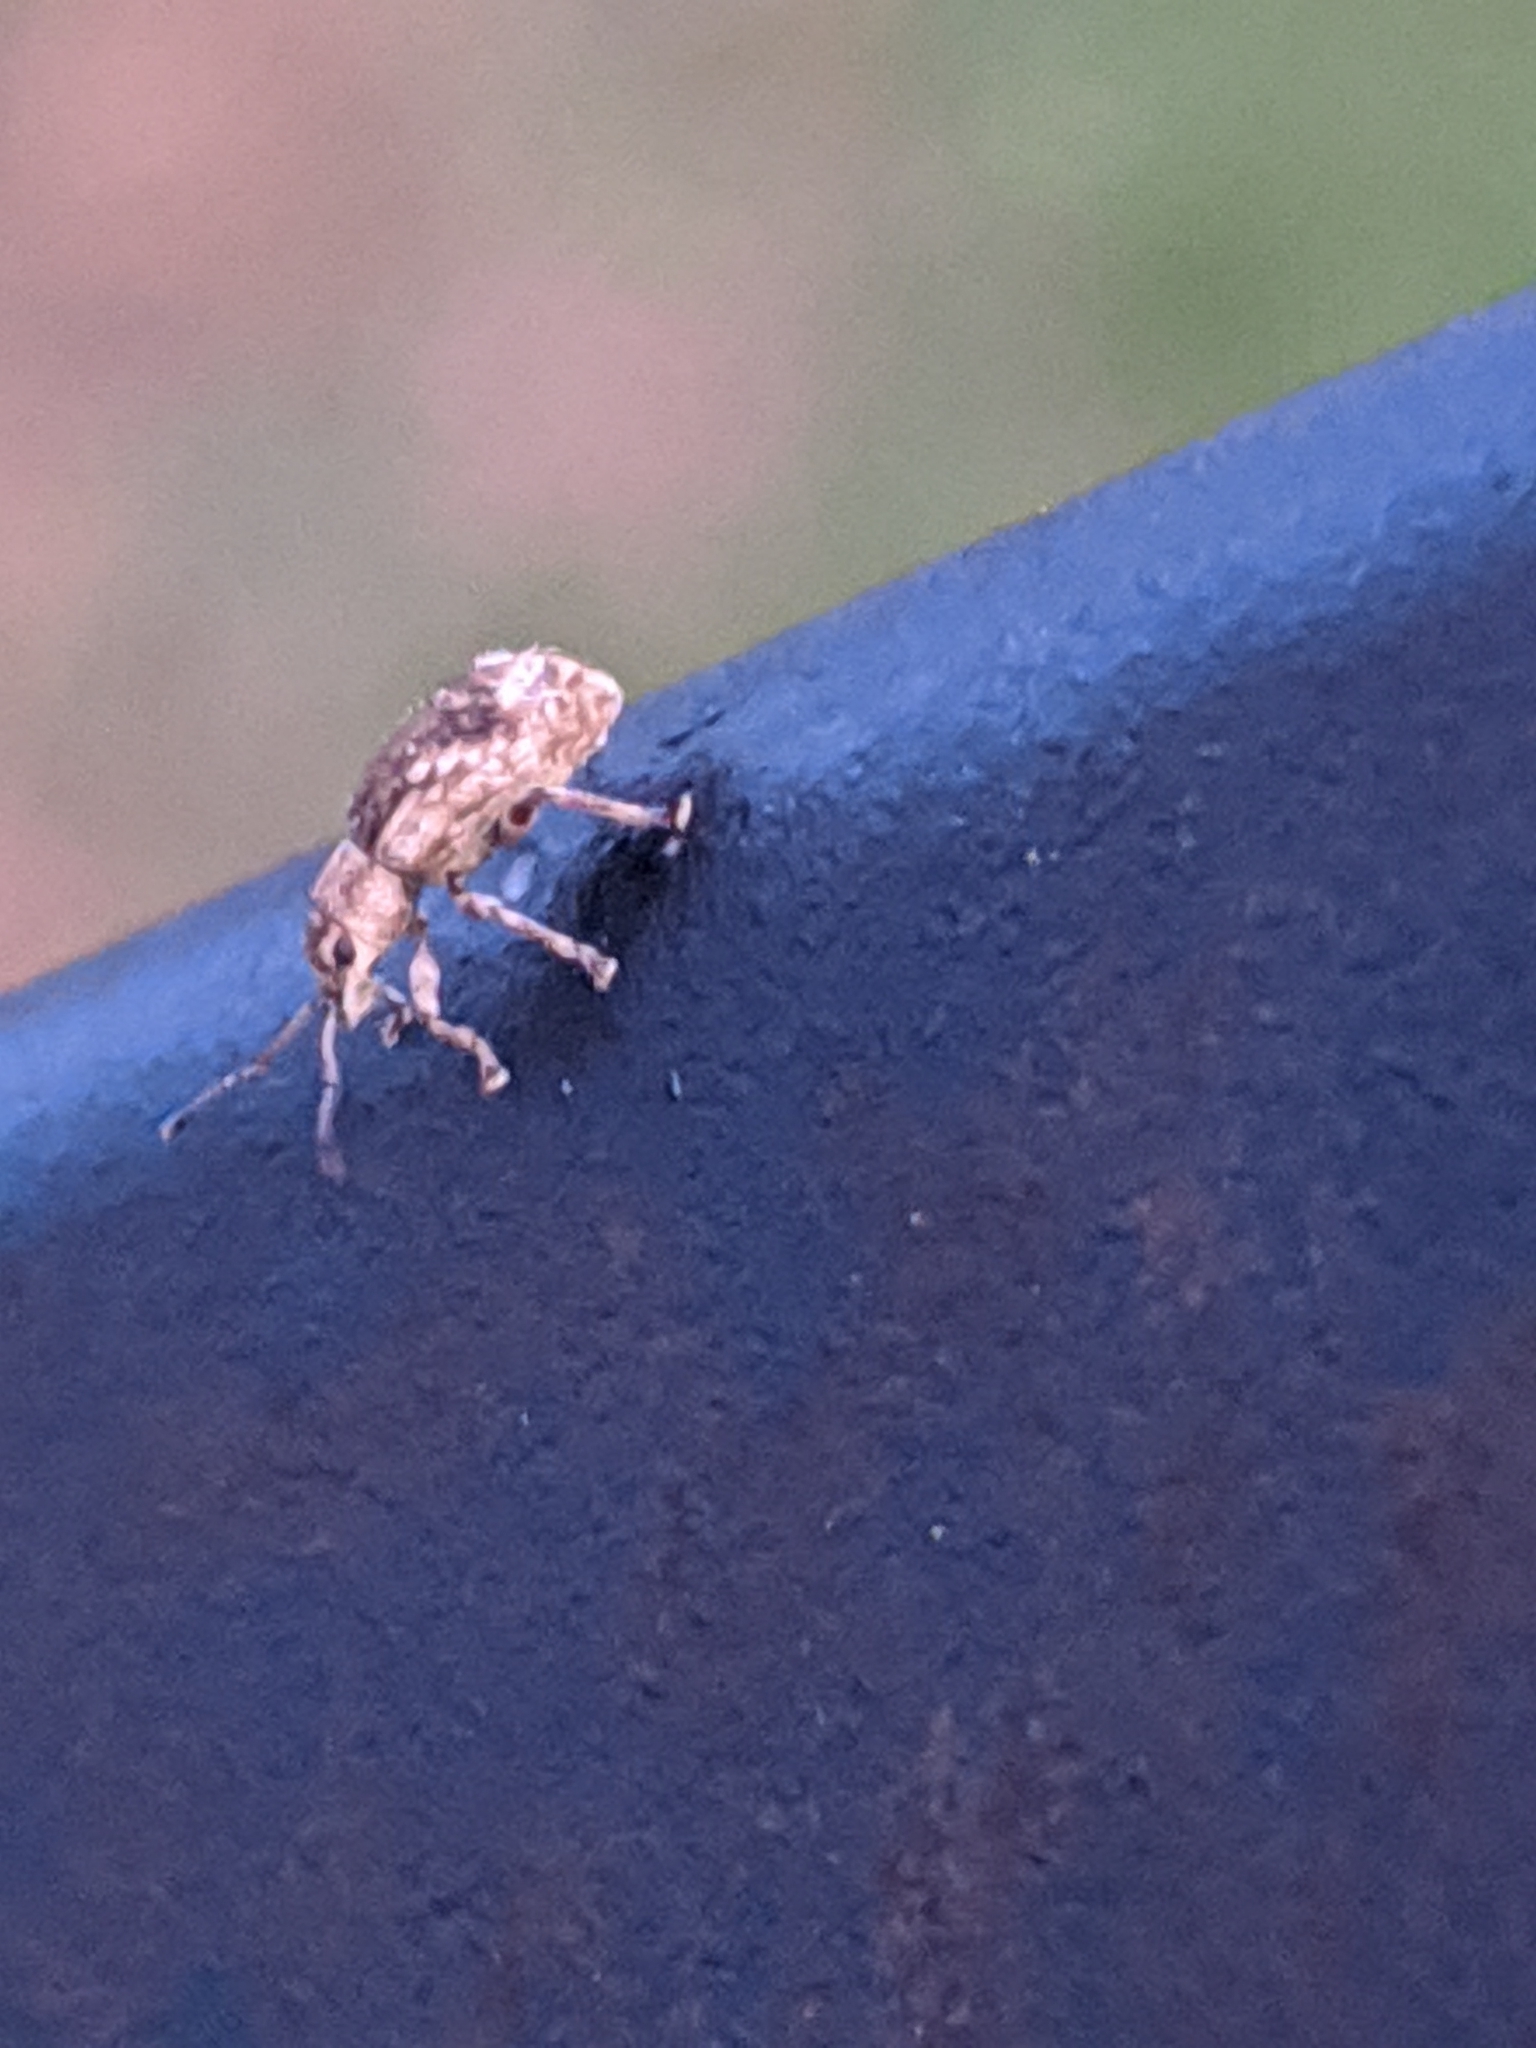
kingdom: Animalia
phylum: Arthropoda
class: Insecta
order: Coleoptera
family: Curculionidae
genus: Pseudoedophrys
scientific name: Pseudoedophrys hilleri
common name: Weevil
